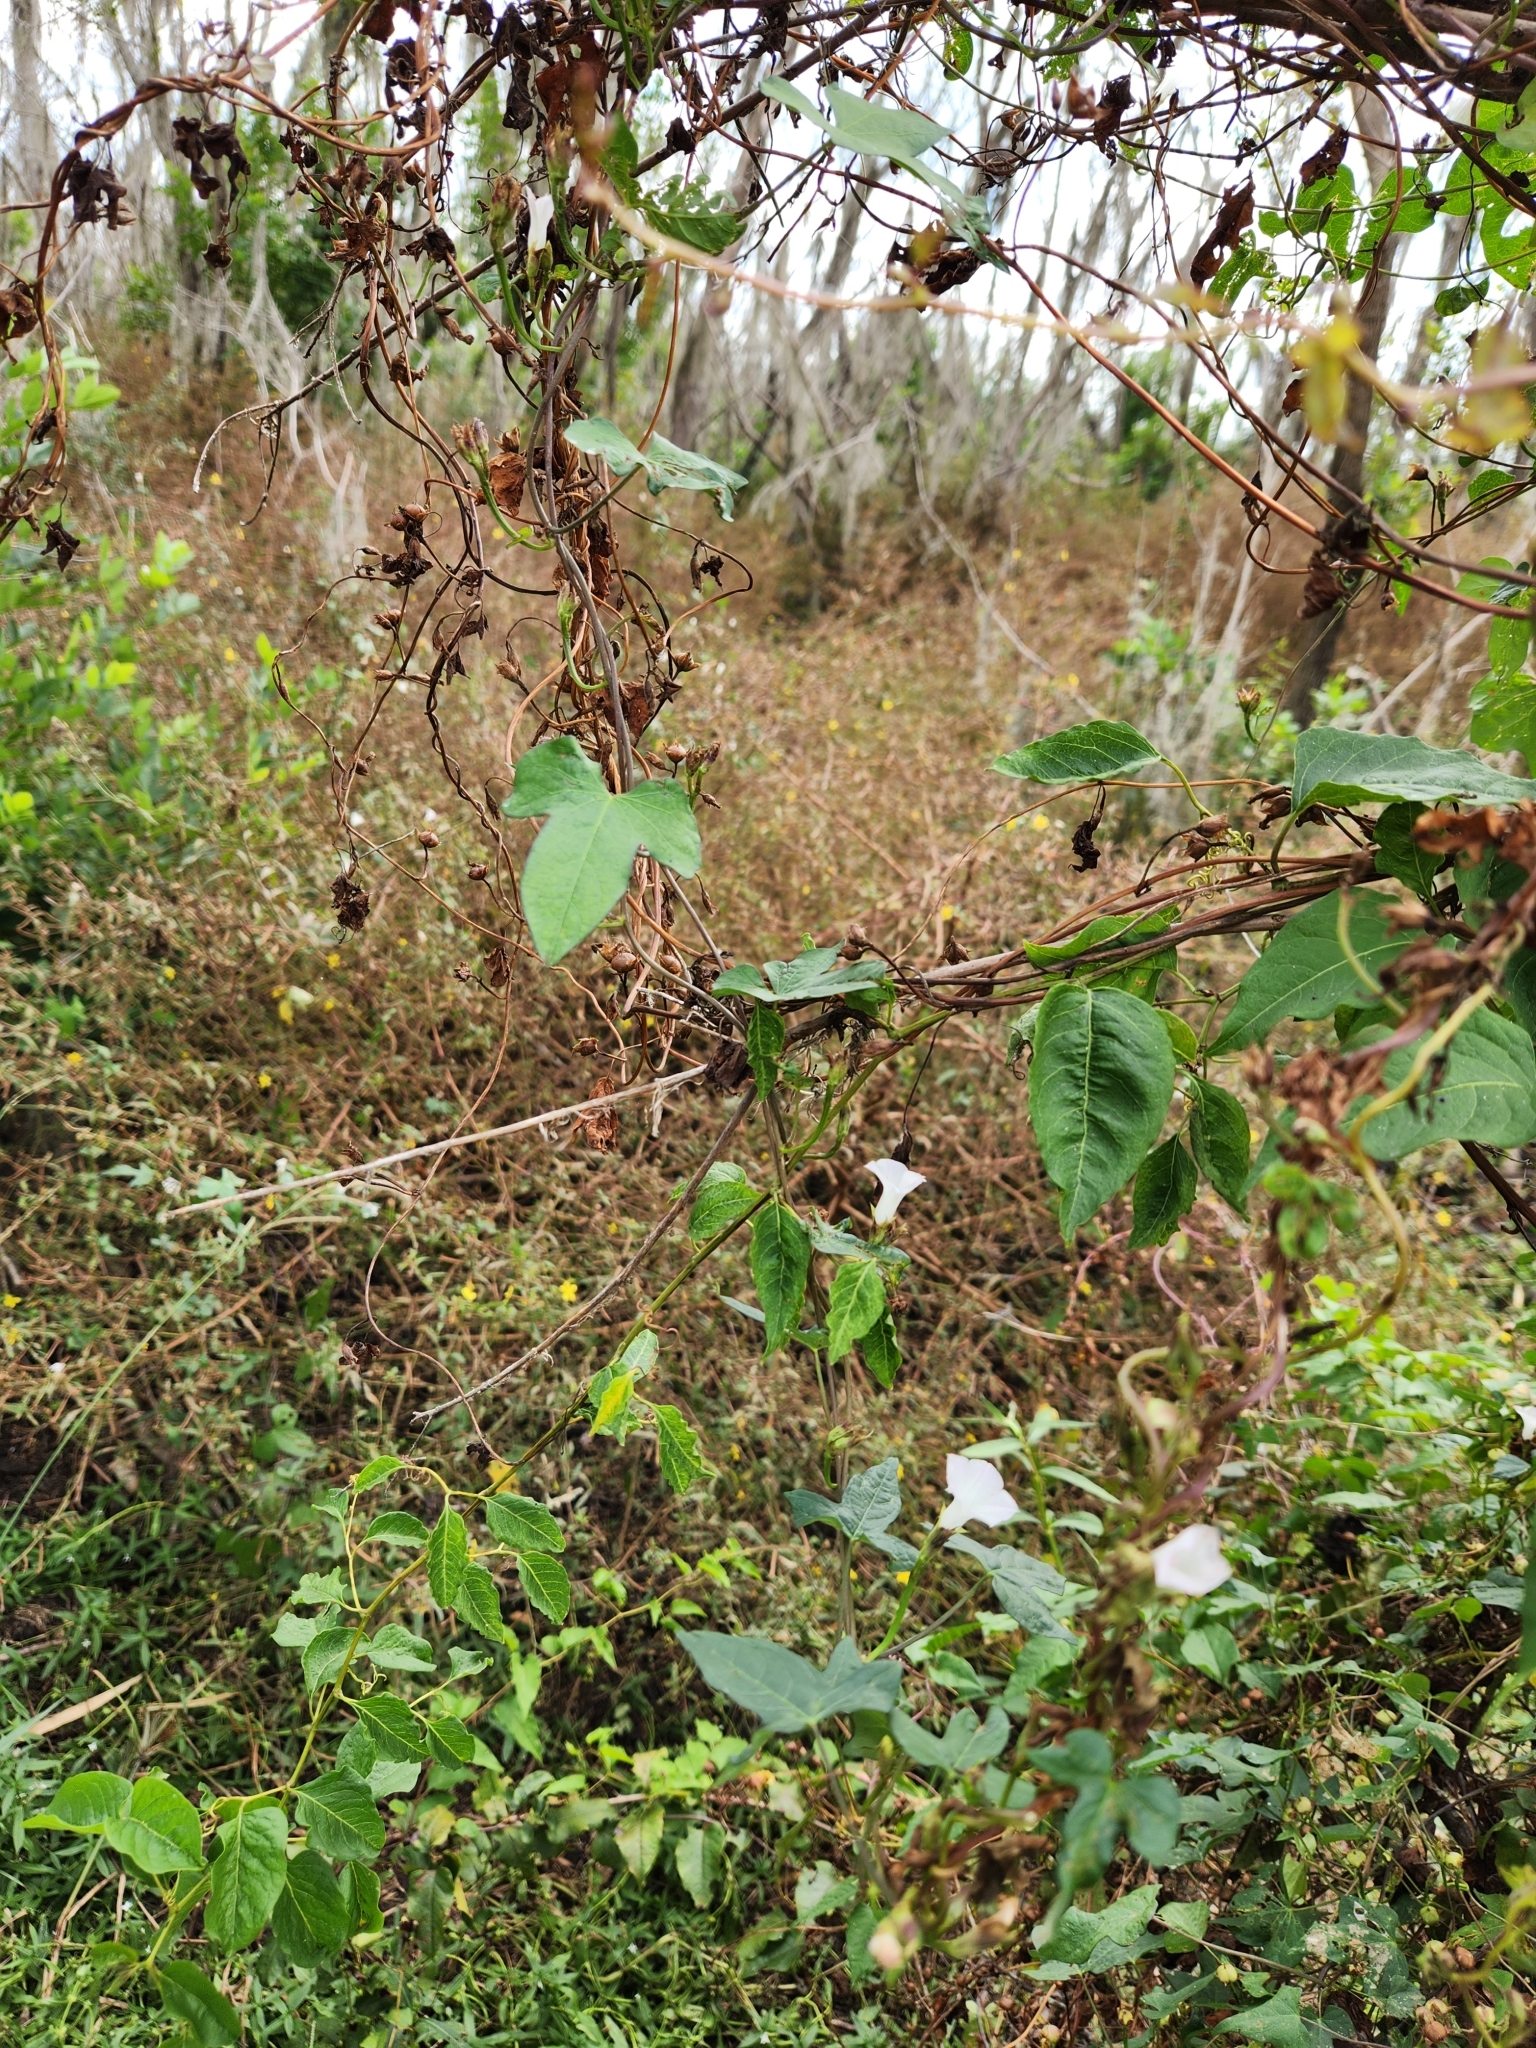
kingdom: Plantae
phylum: Tracheophyta
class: Magnoliopsida
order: Solanales
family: Convolvulaceae
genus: Ipomoea
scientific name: Ipomoea lacunosa
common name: White morning-glory
